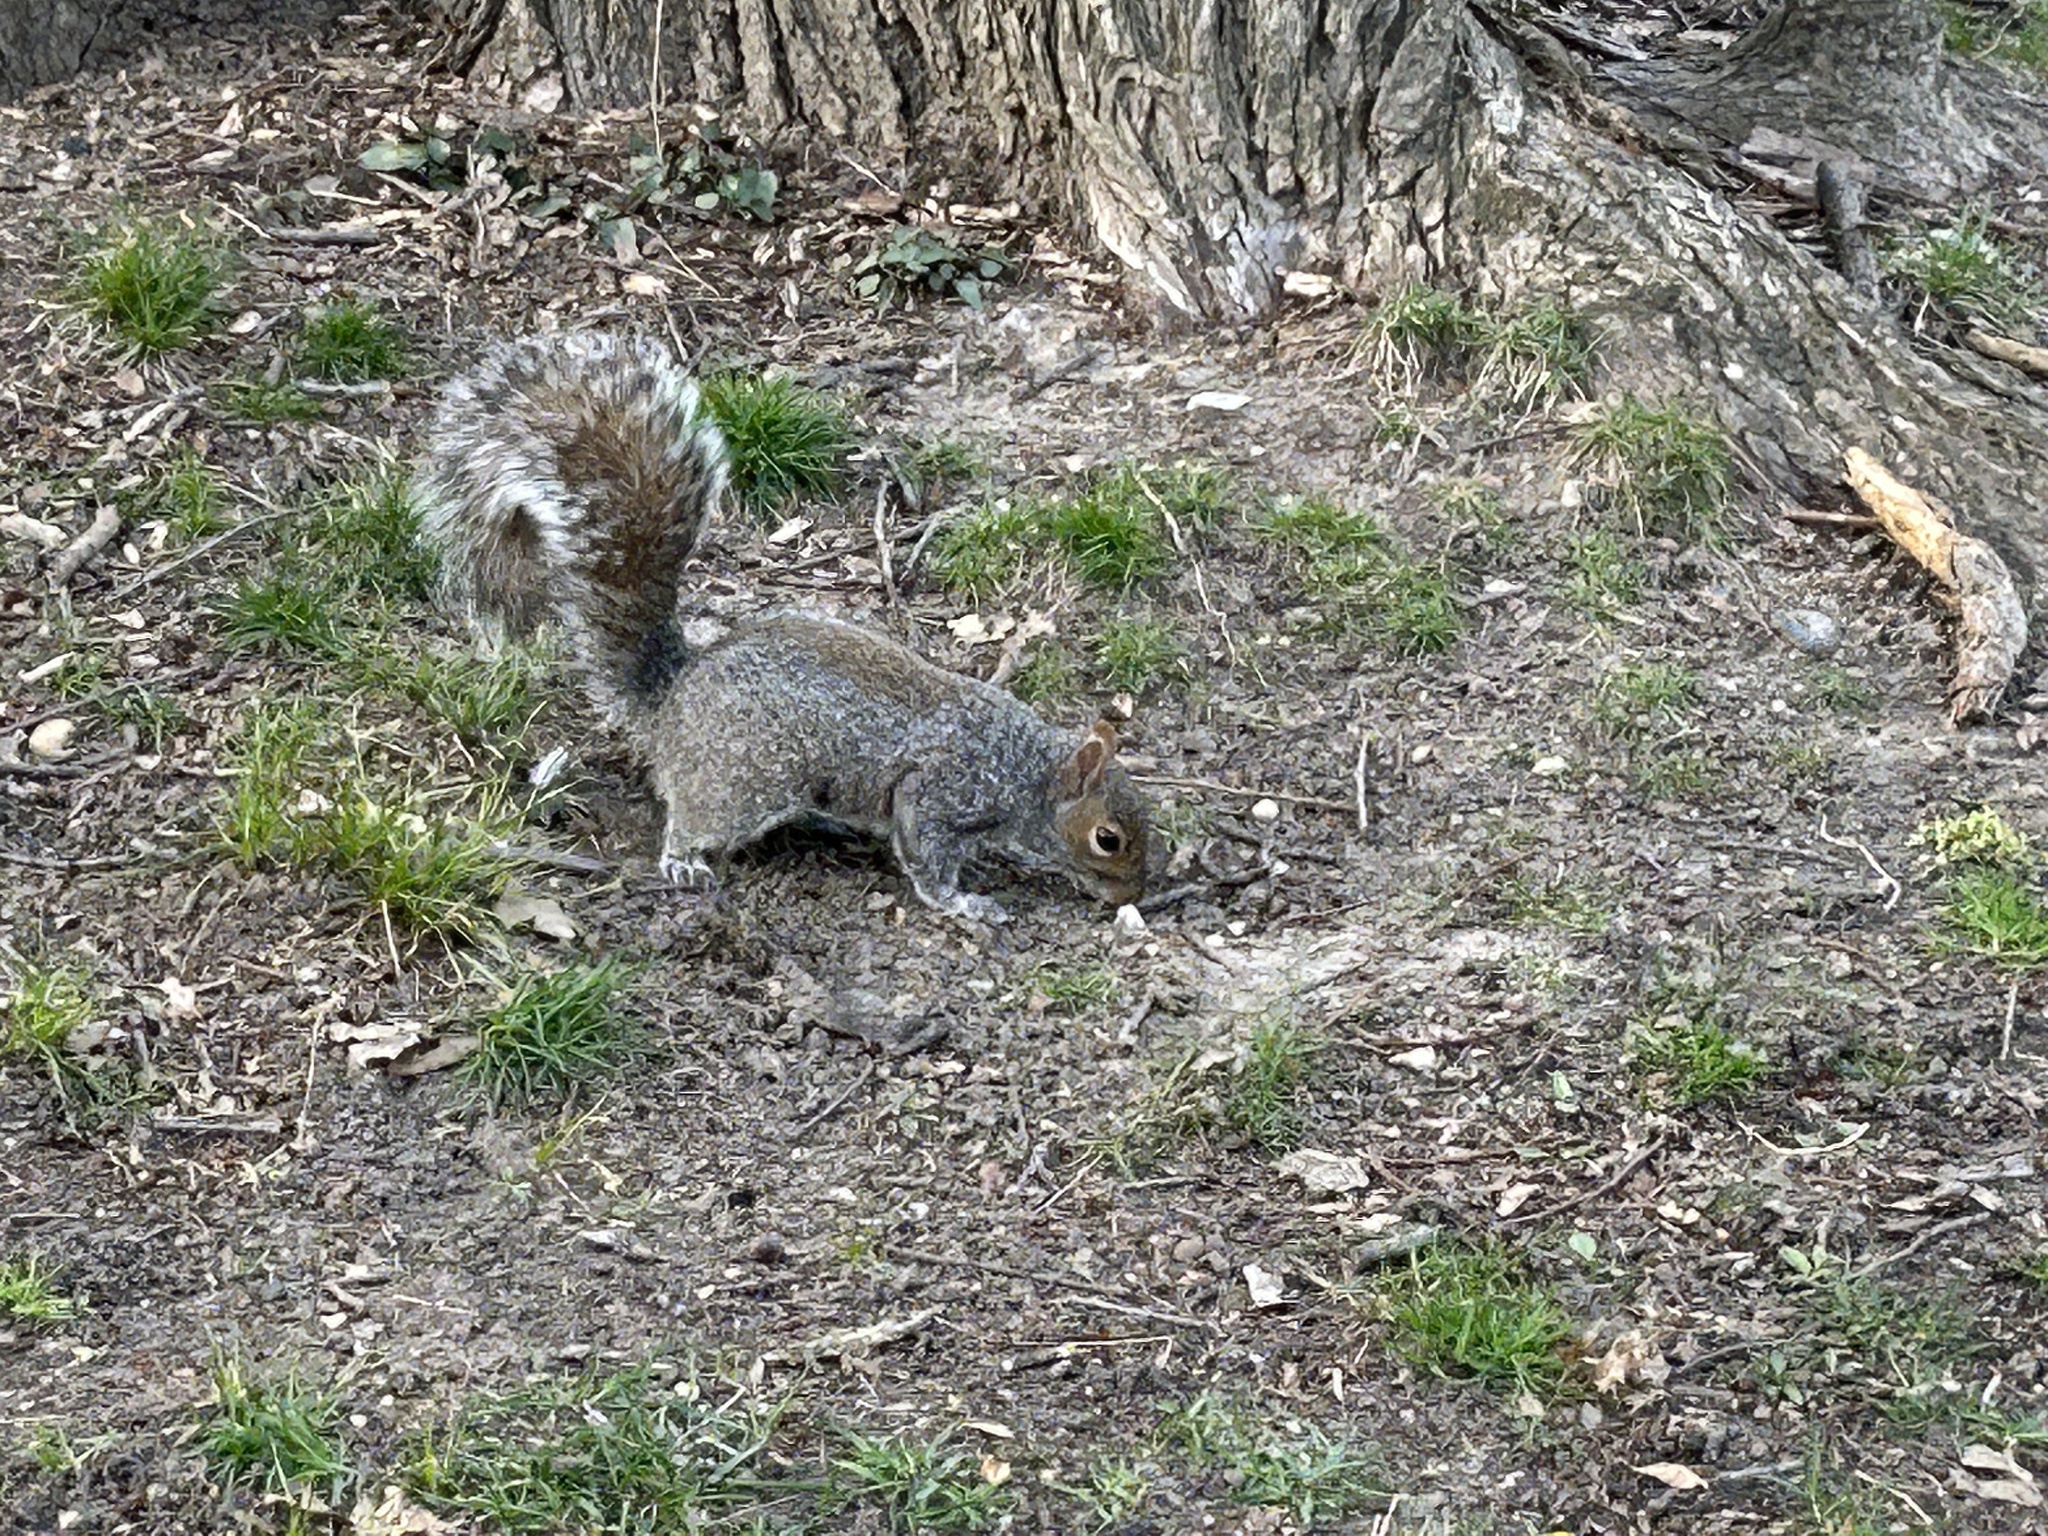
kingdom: Animalia
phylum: Chordata
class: Mammalia
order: Rodentia
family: Sciuridae
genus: Sciurus
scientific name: Sciurus carolinensis
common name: Eastern gray squirrel
